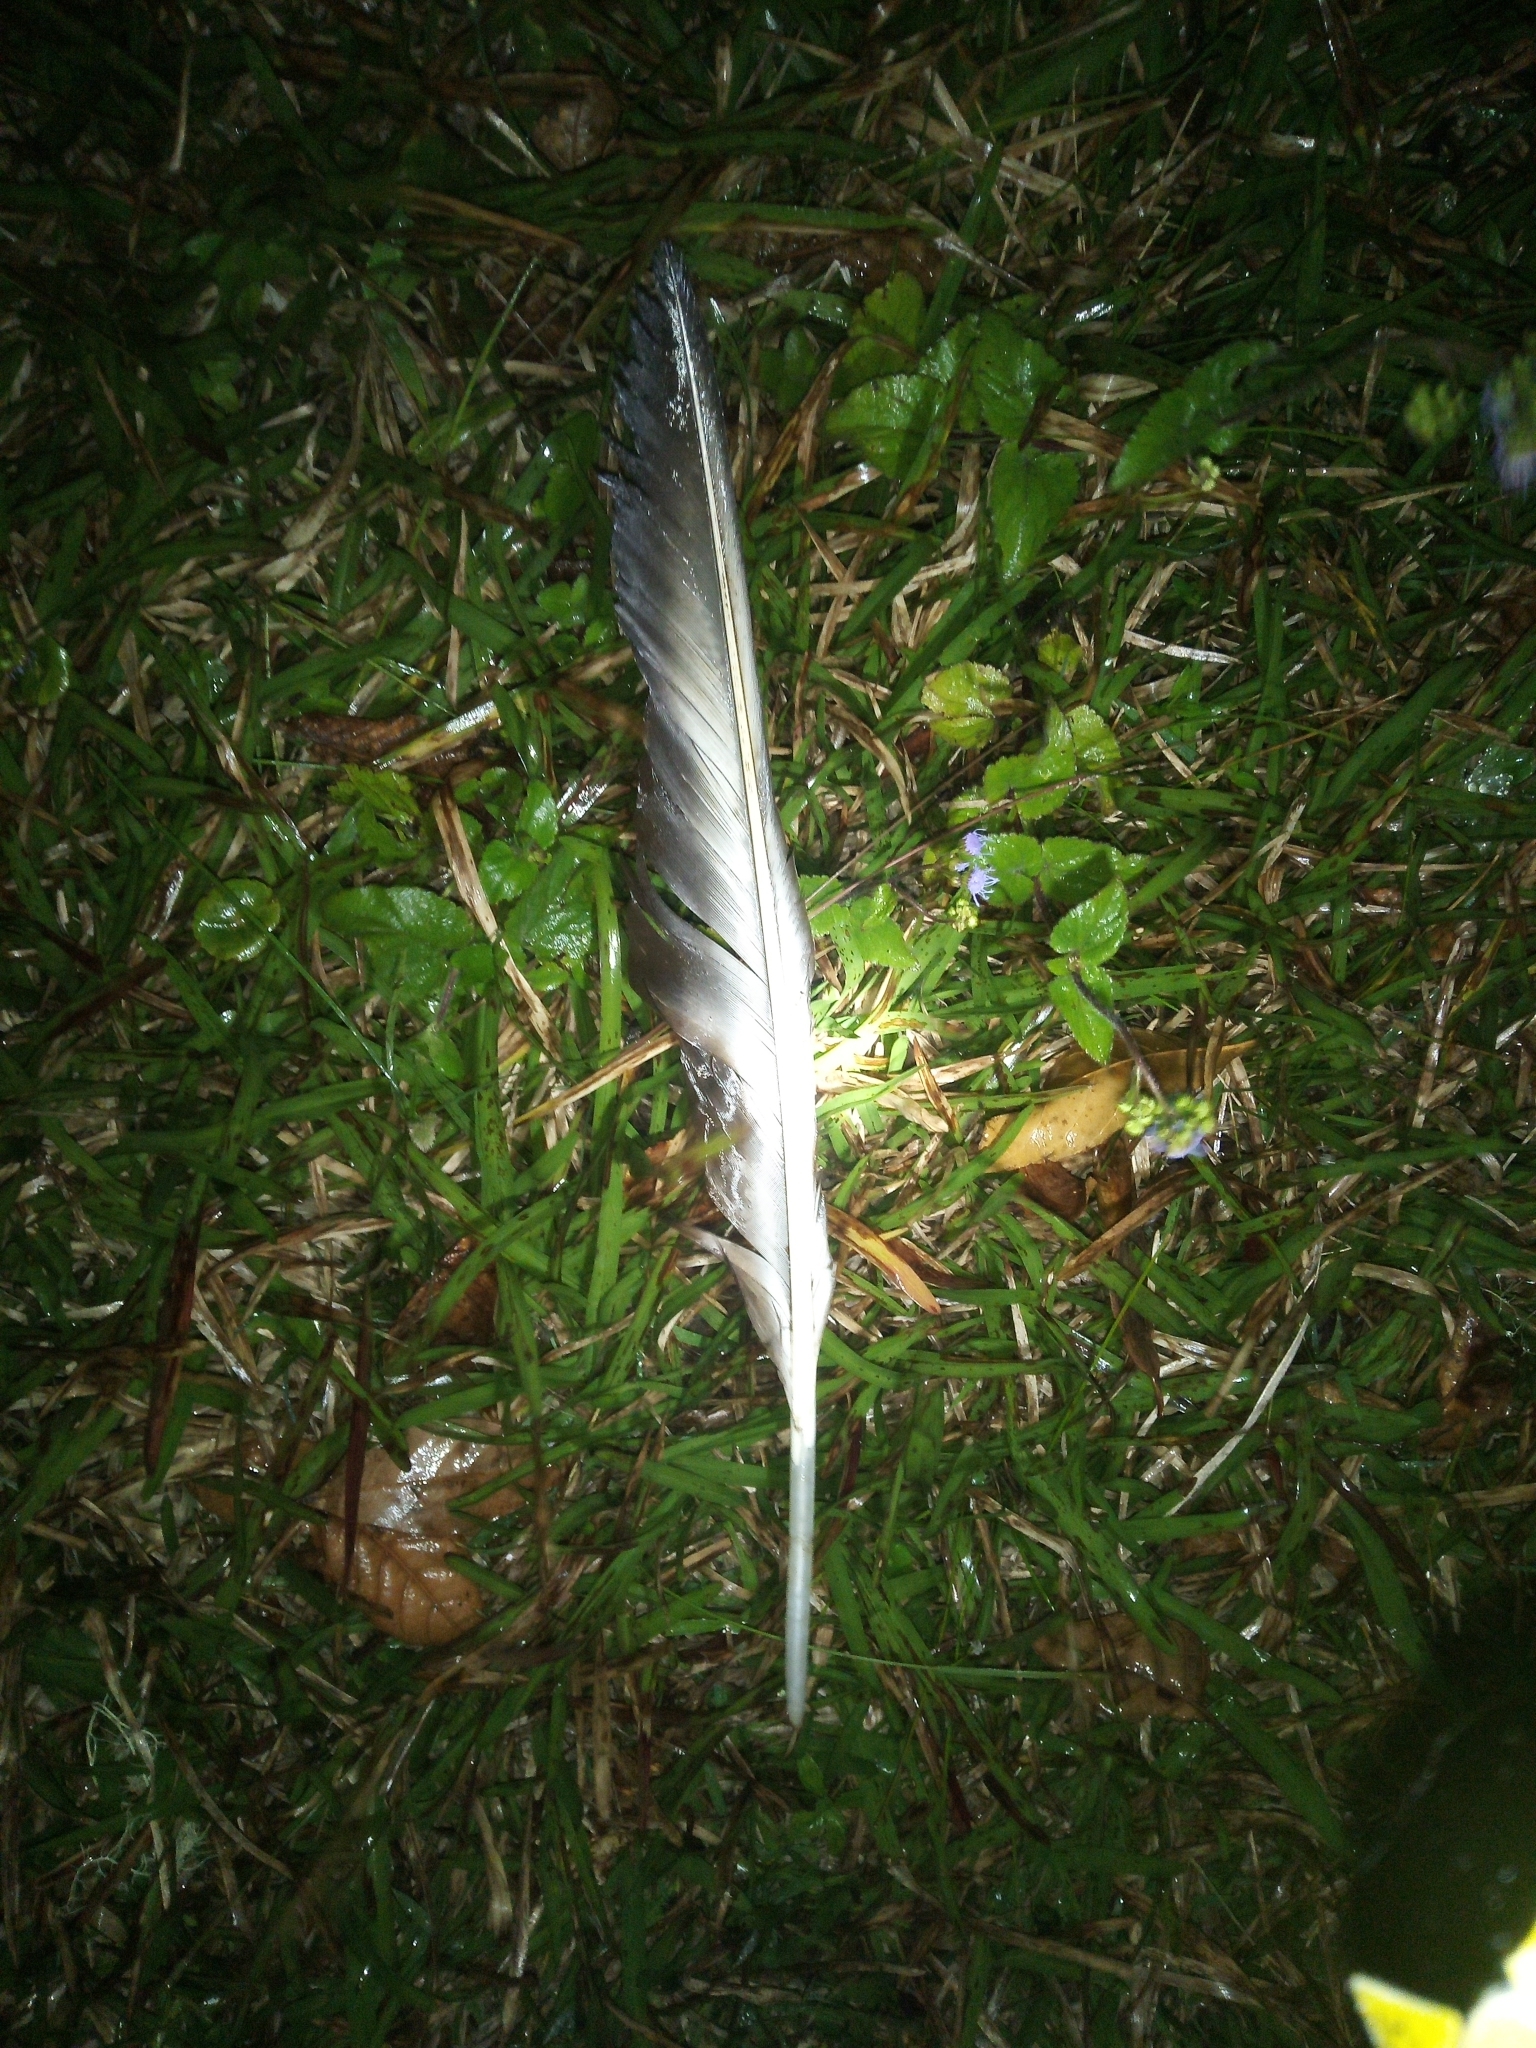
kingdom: Animalia
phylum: Chordata
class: Aves
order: Accipitriformes
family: Cathartidae
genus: Coragyps
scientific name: Coragyps atratus
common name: Black vulture
